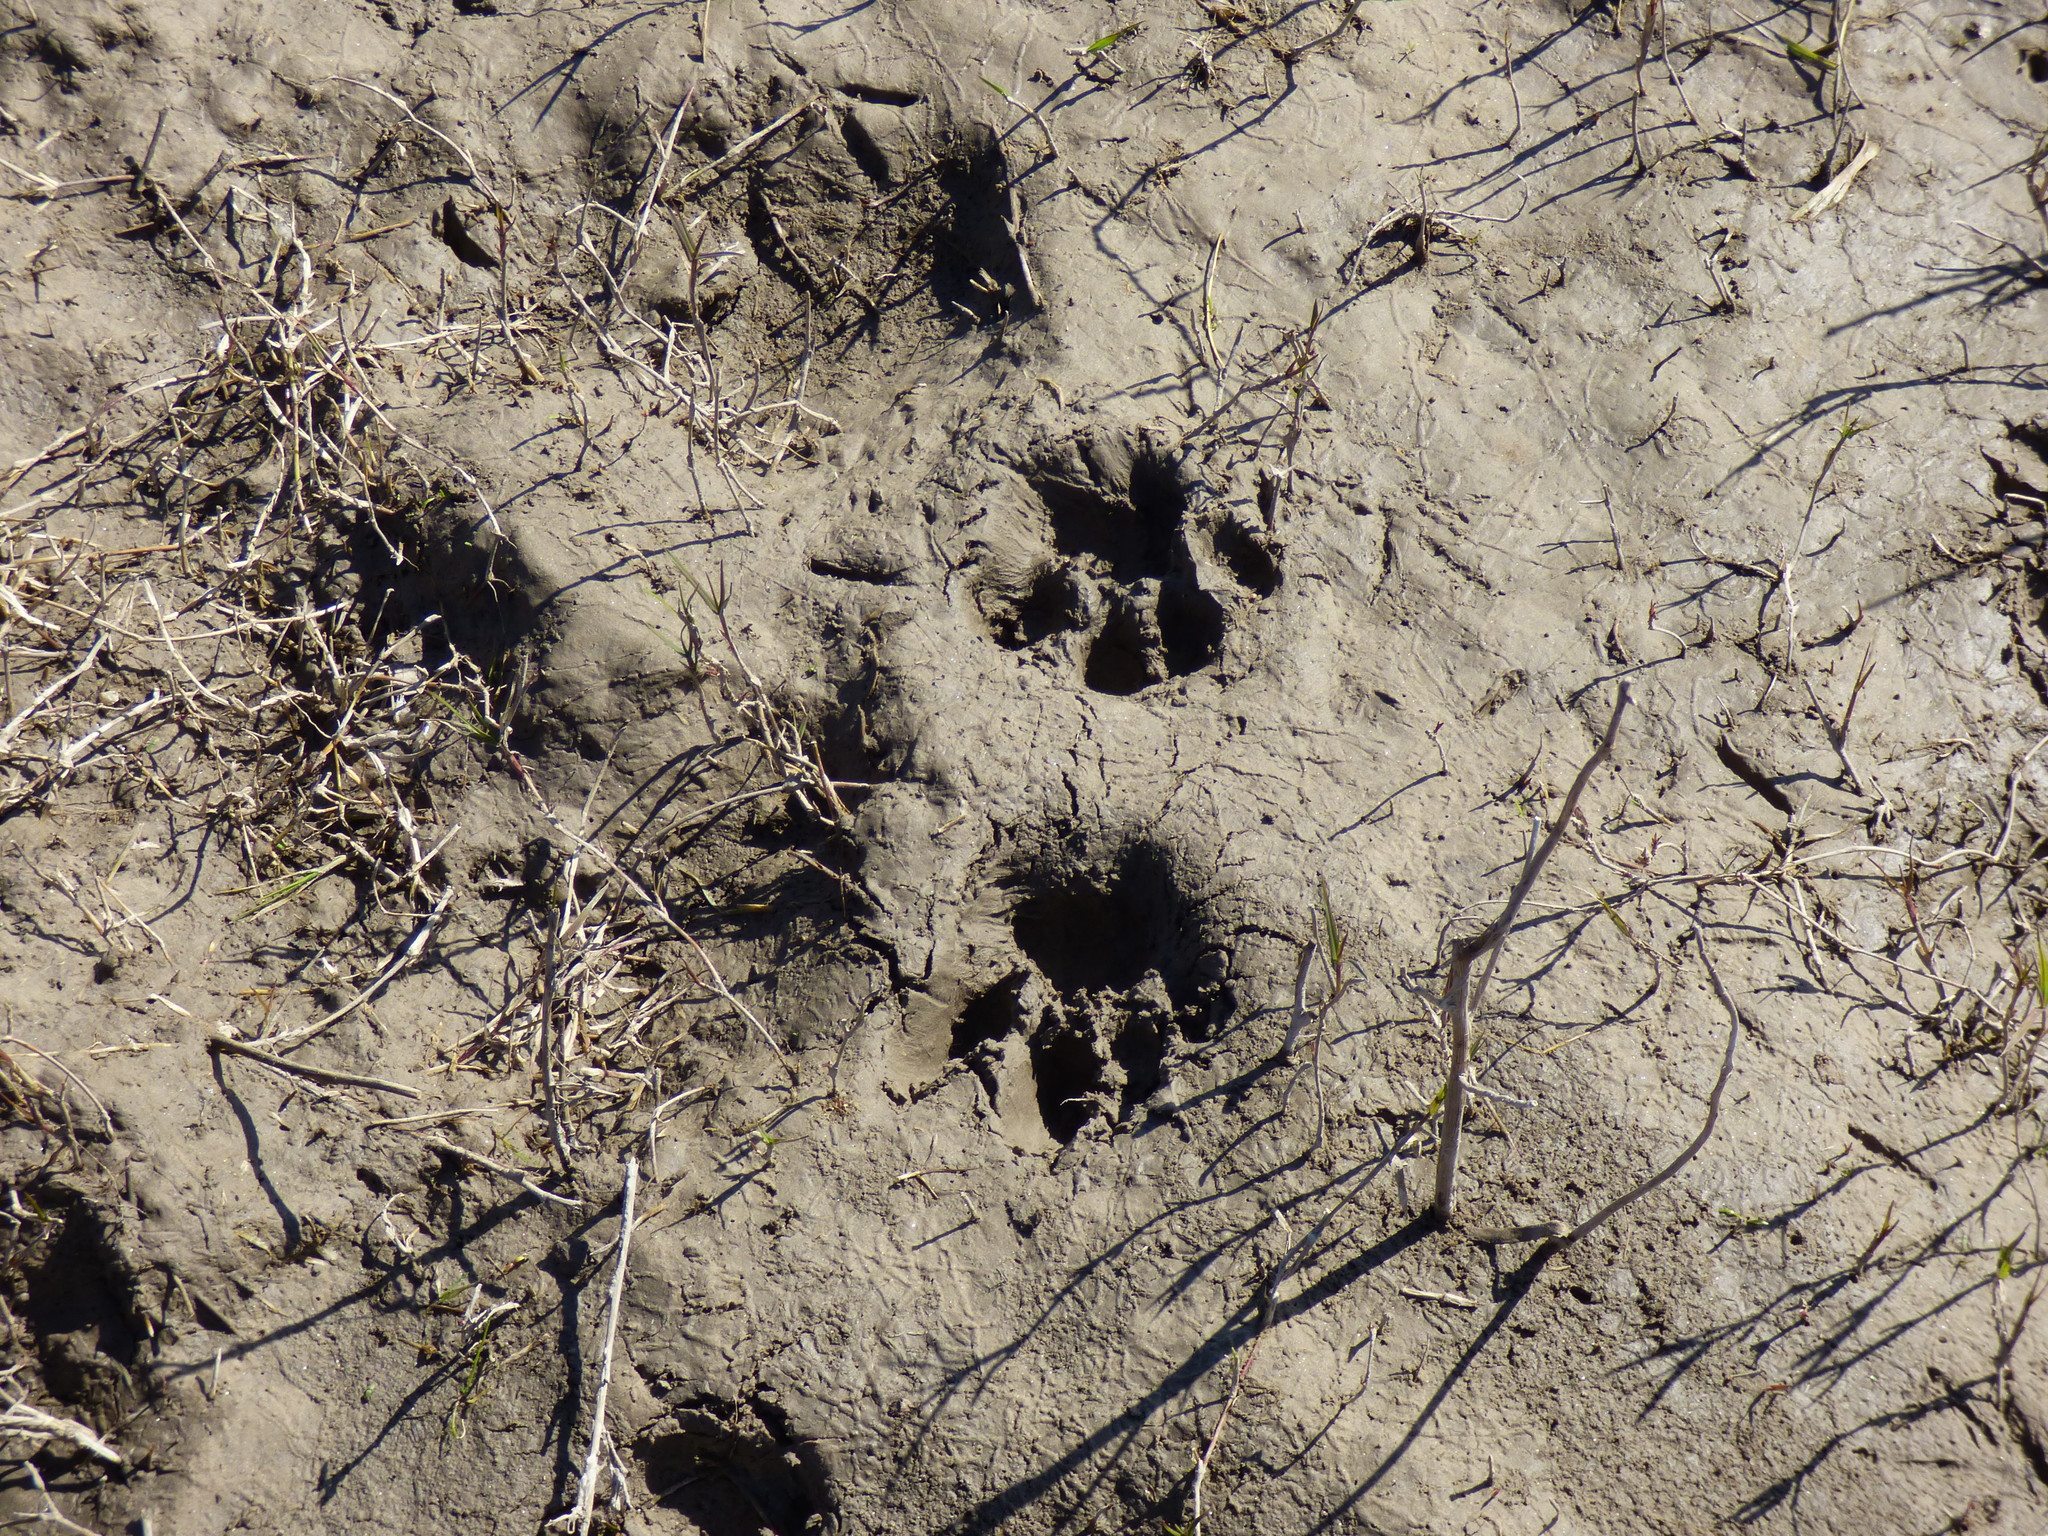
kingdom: Animalia
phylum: Chordata
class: Mammalia
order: Carnivora
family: Felidae
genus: Puma
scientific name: Puma concolor
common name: Puma
